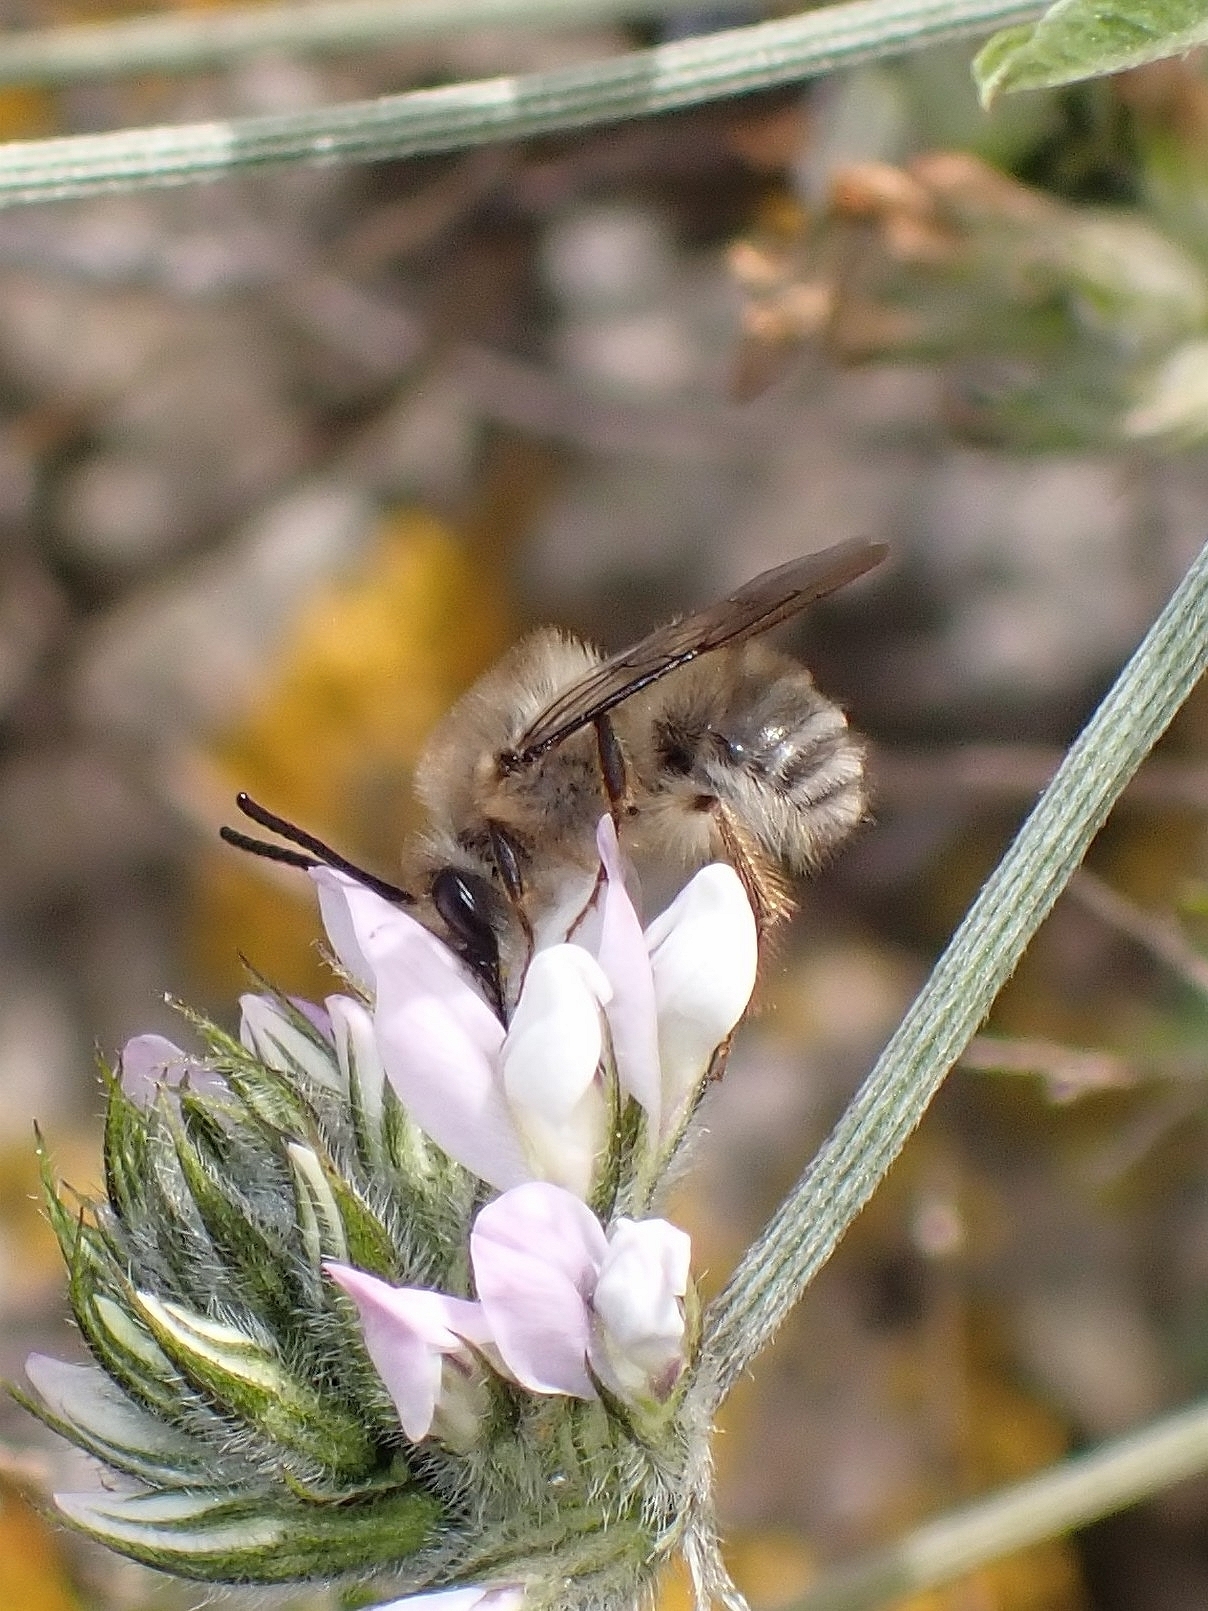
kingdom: Animalia
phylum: Arthropoda
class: Insecta
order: Hymenoptera
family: Apidae
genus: Eucera
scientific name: Eucera gracilipes
